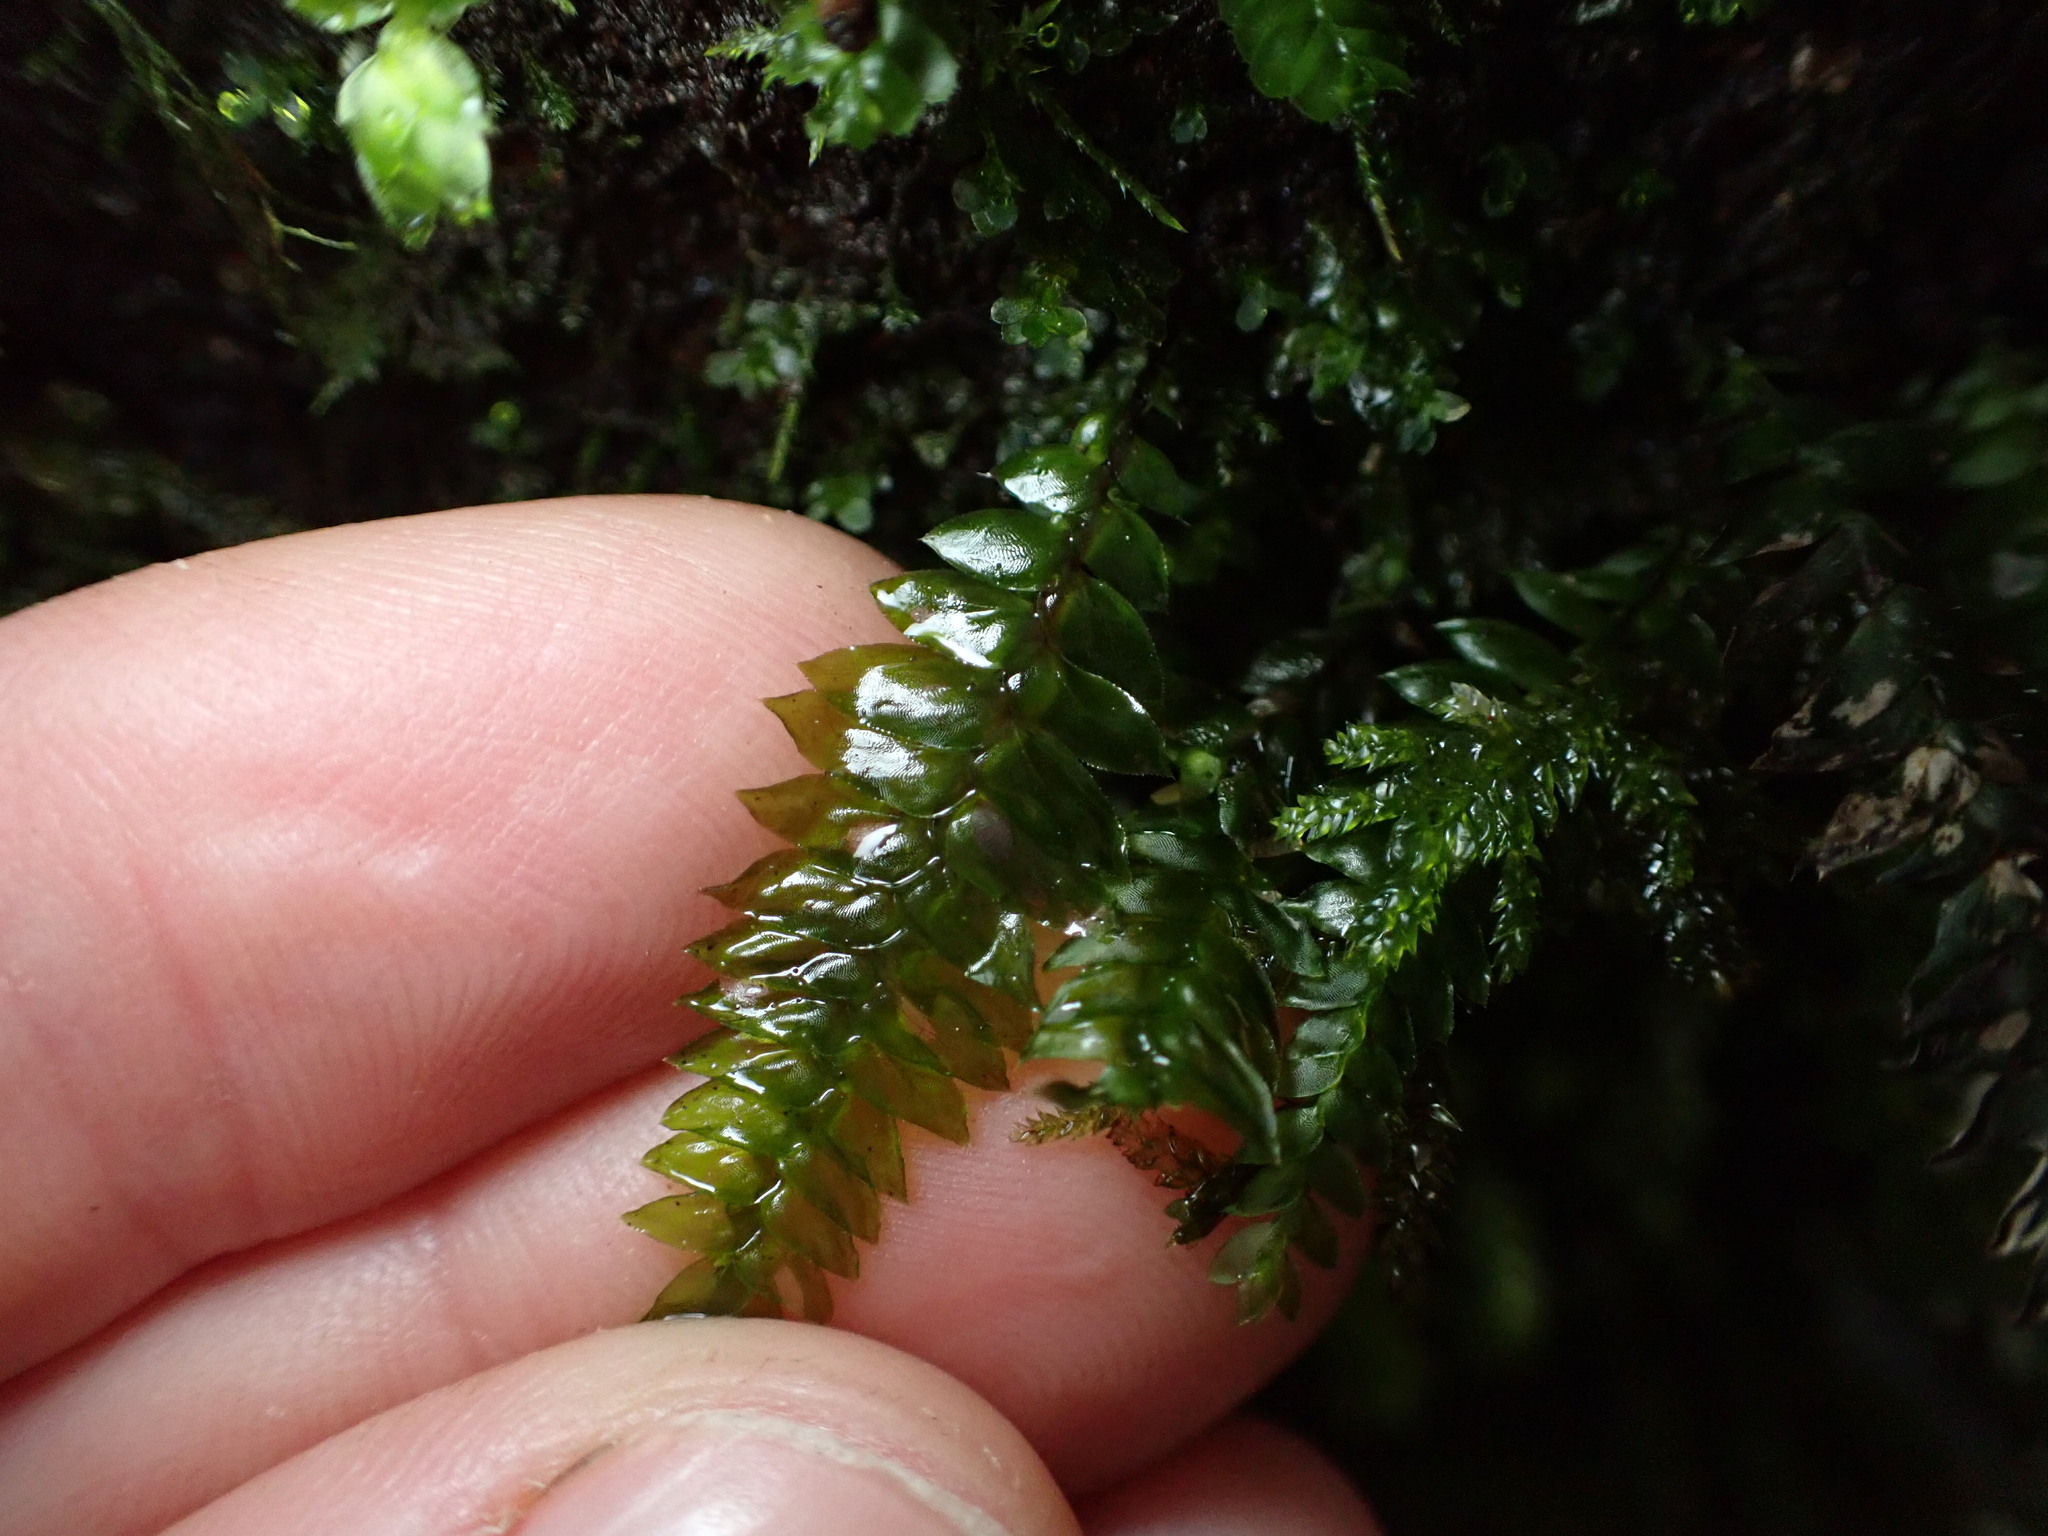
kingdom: Plantae
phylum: Bryophyta
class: Bryopsida
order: Hypopterygiales
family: Hypopterygiaceae
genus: Cyathophorum
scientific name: Cyathophorum bulbosum
